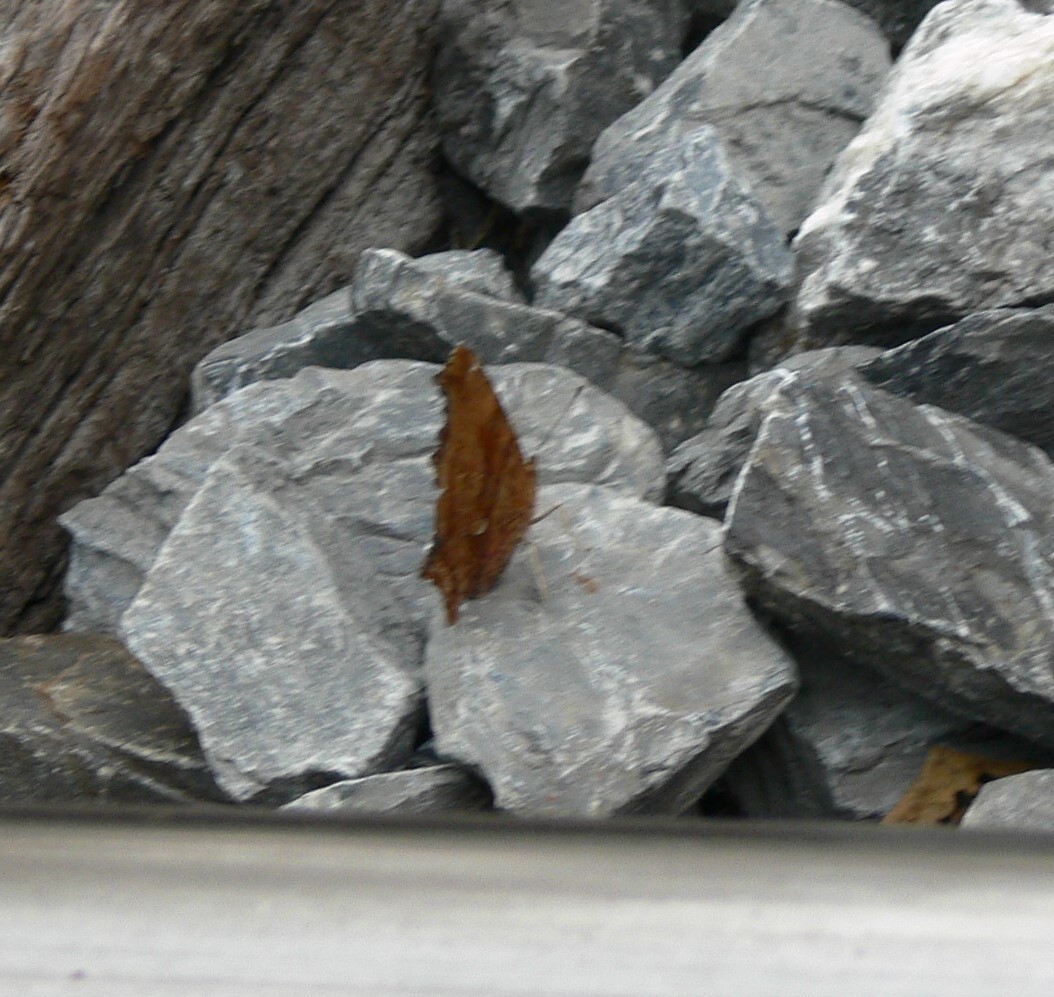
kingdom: Animalia
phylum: Arthropoda
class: Insecta
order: Lepidoptera
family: Nymphalidae
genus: Polygonia
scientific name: Polygonia comma
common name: Eastern comma
